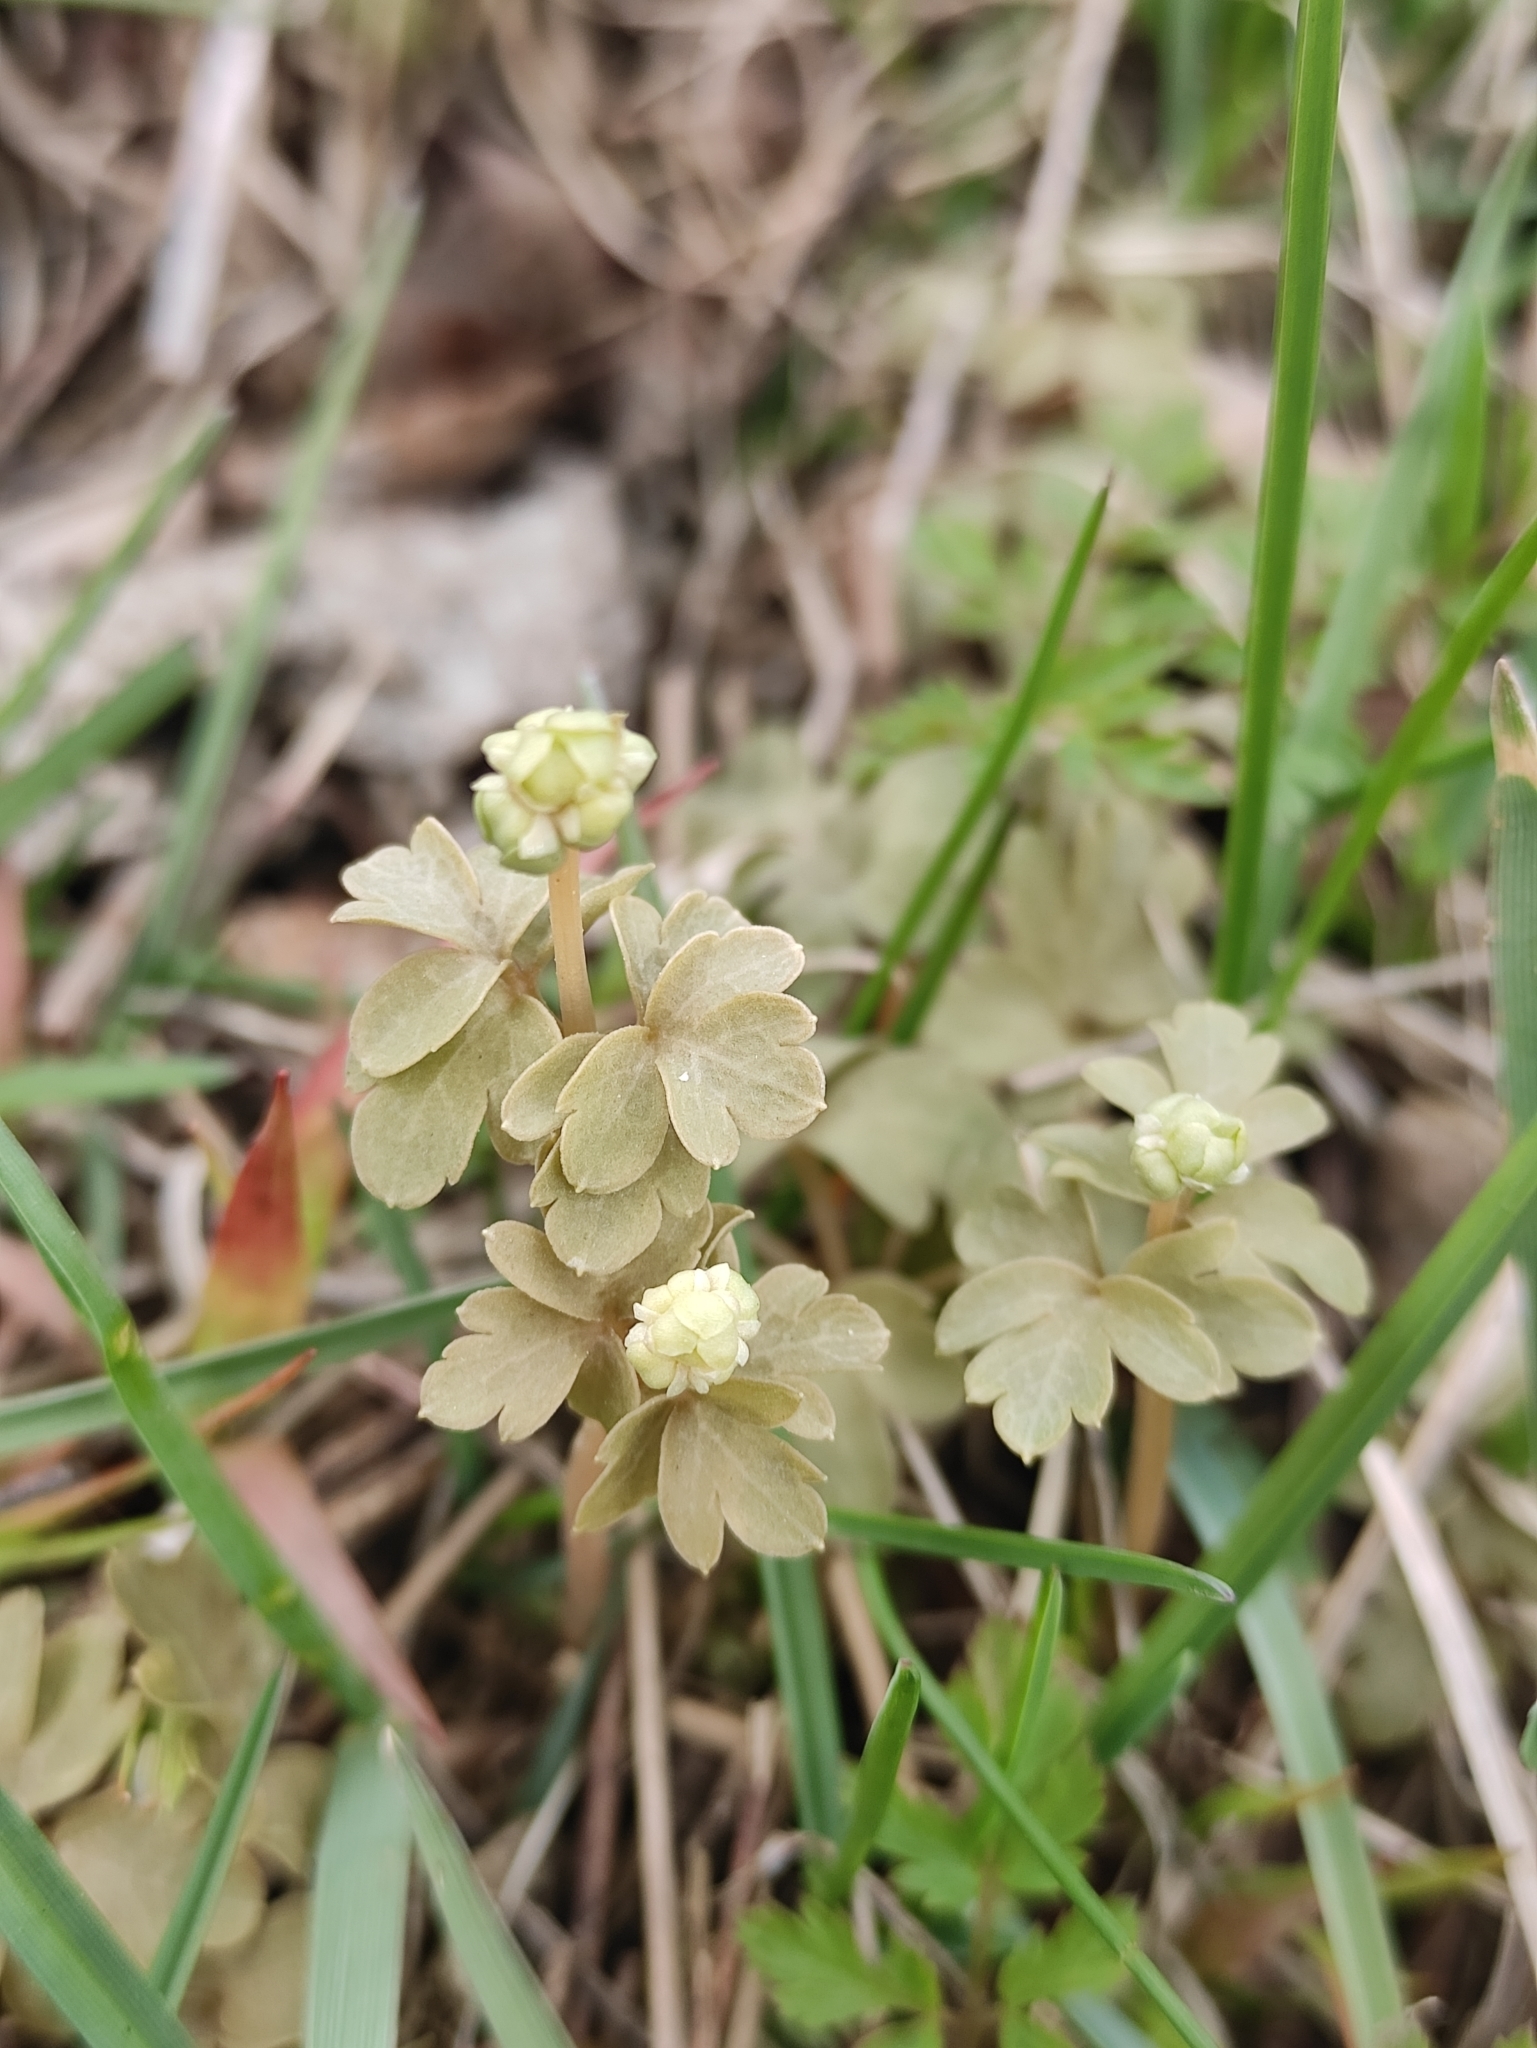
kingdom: Plantae
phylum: Tracheophyta
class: Magnoliopsida
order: Dipsacales
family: Viburnaceae
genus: Adoxa
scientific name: Adoxa moschatellina
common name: Moschatel
